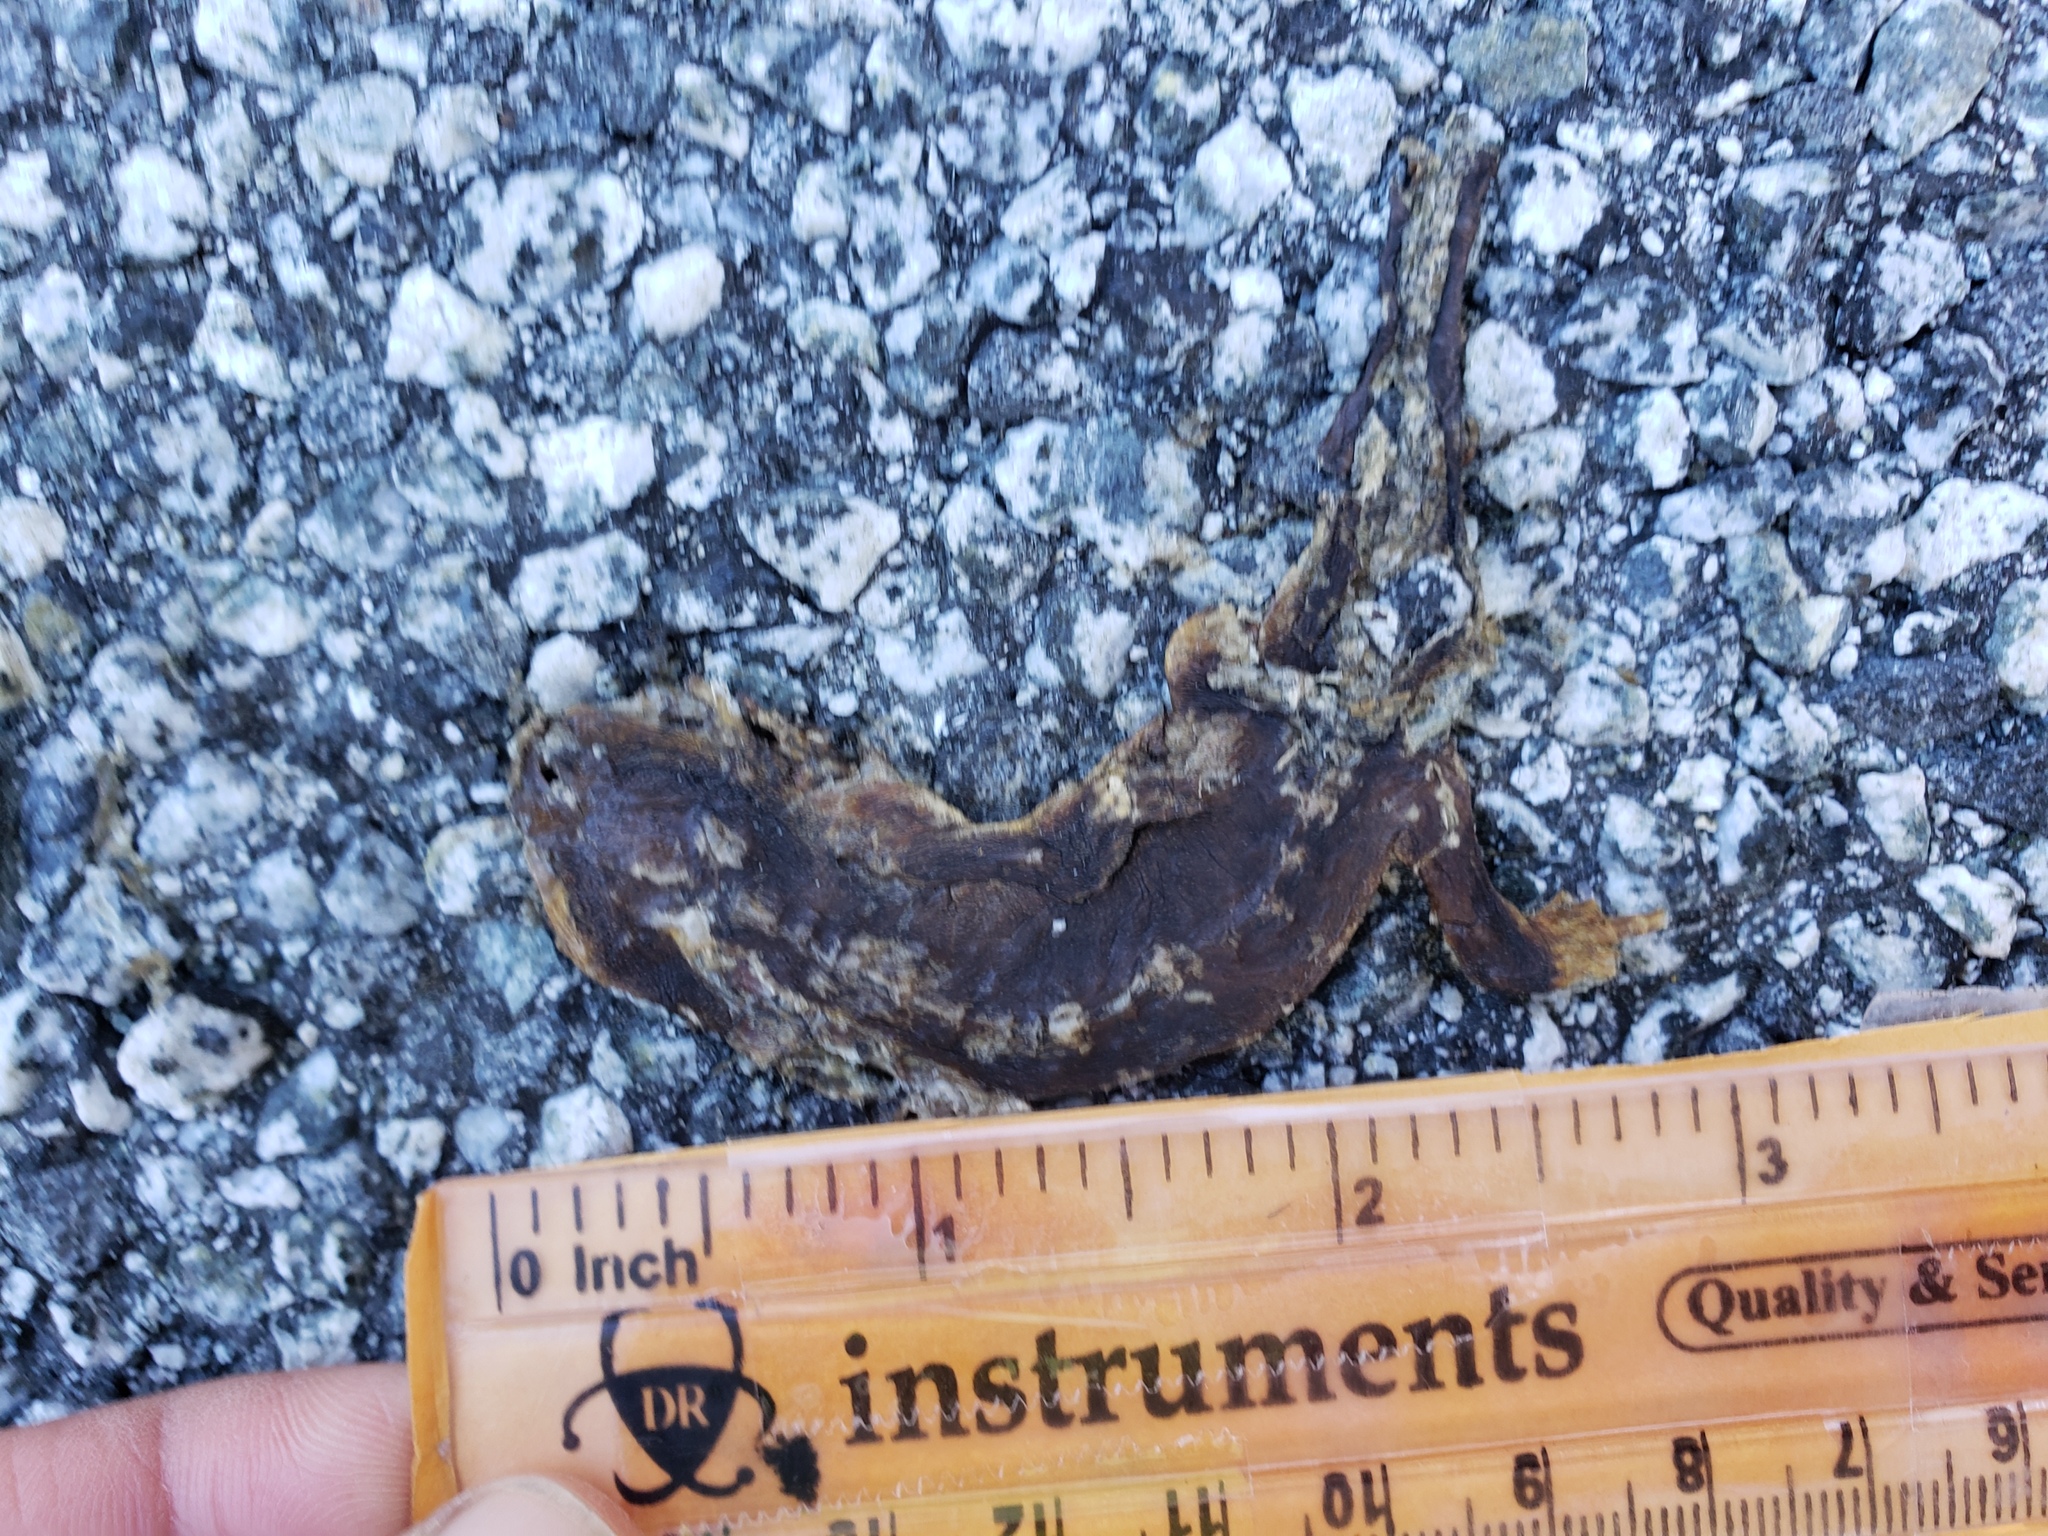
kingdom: Animalia
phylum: Chordata
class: Amphibia
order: Caudata
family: Salamandridae
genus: Taricha
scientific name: Taricha
